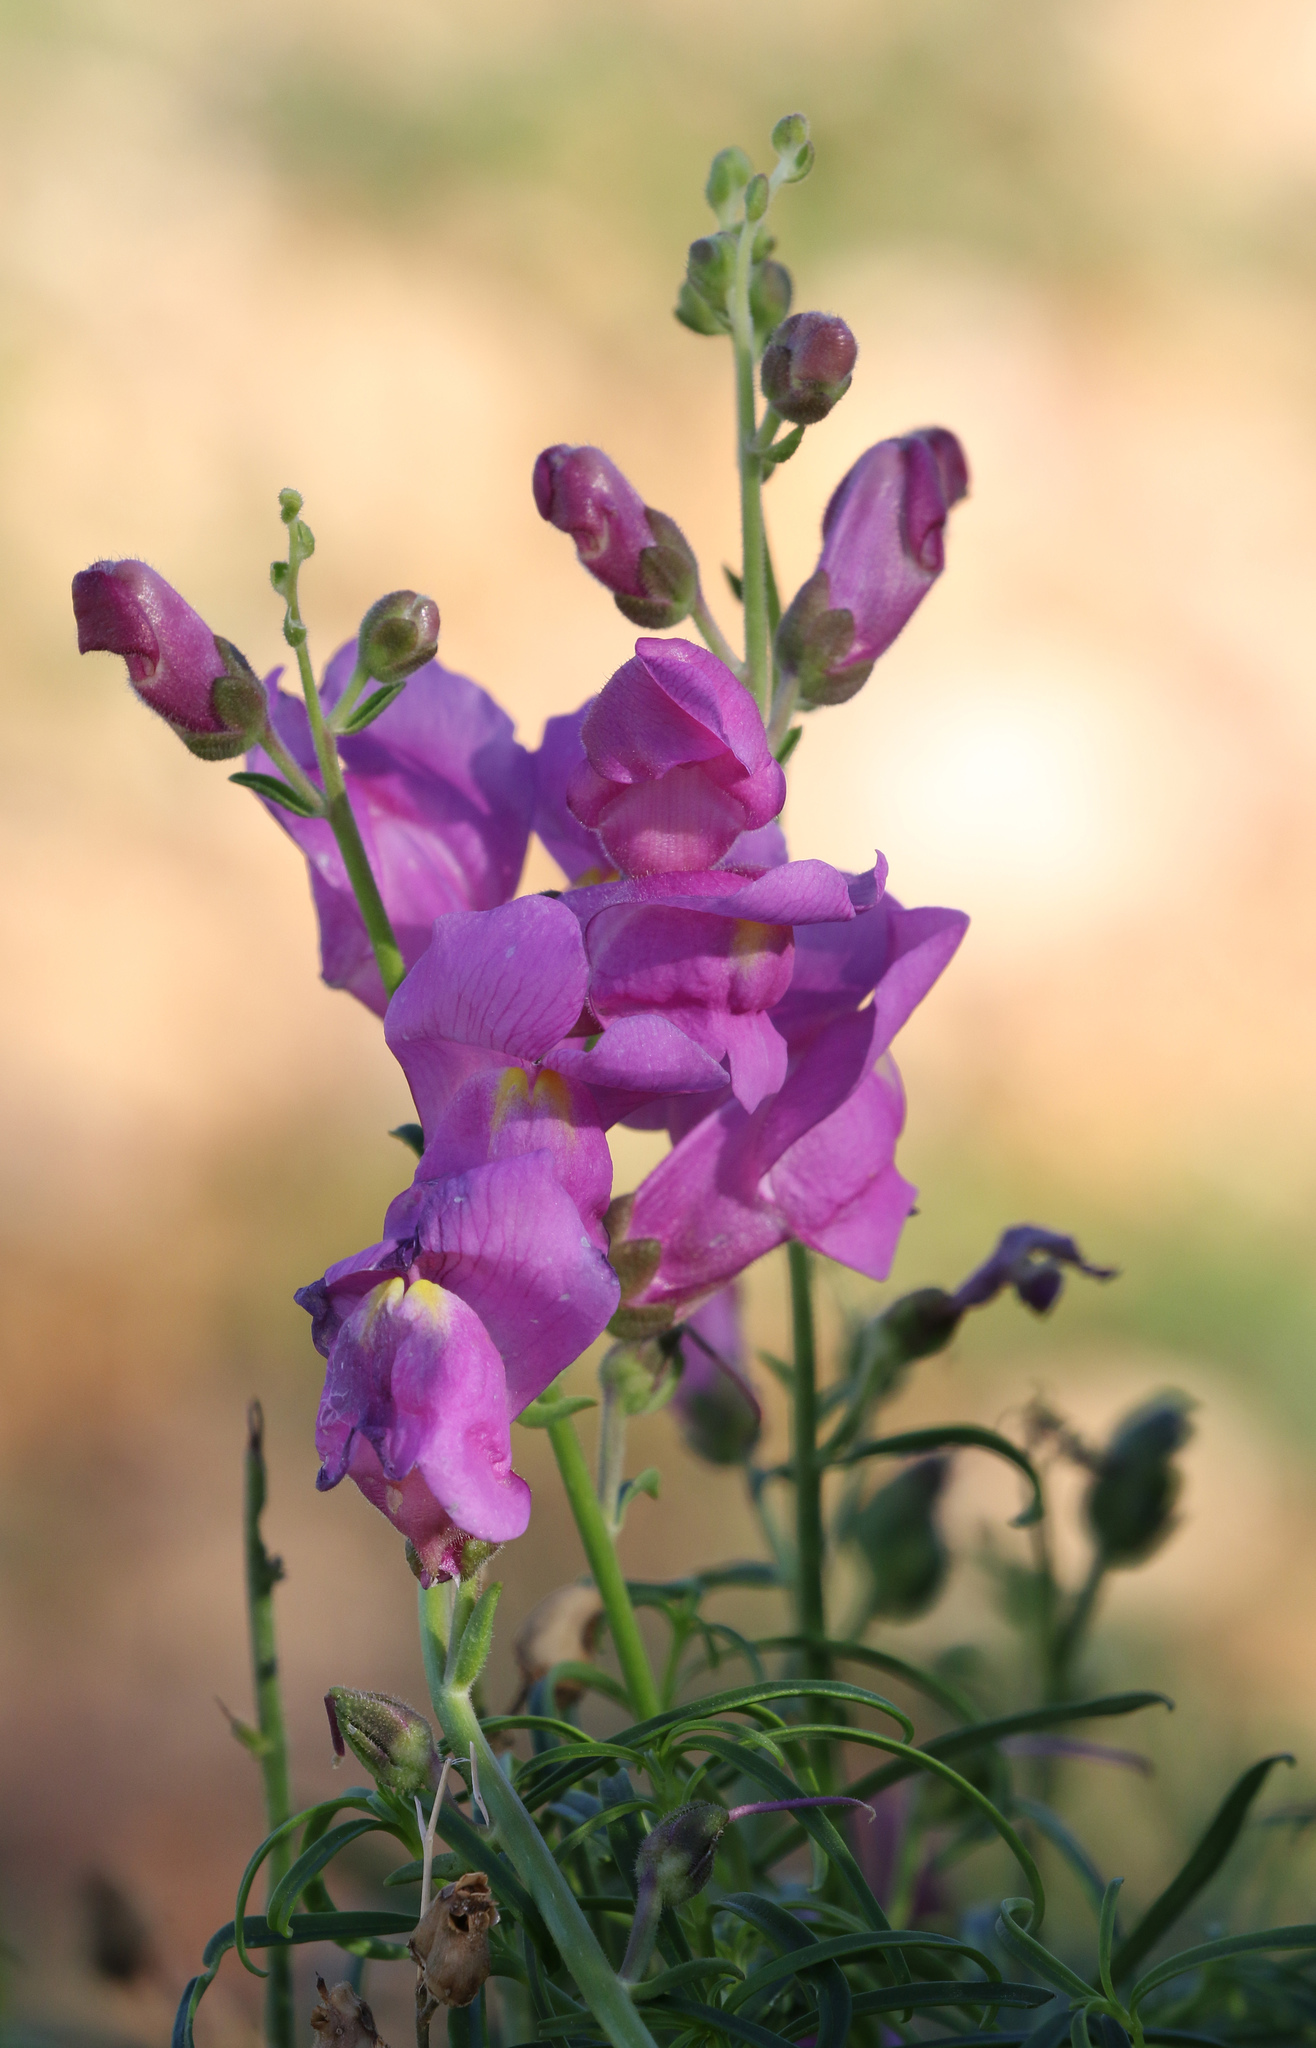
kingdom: Plantae
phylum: Tracheophyta
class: Magnoliopsida
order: Lamiales
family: Plantaginaceae
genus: Antirrhinum
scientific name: Antirrhinum tortuosum
